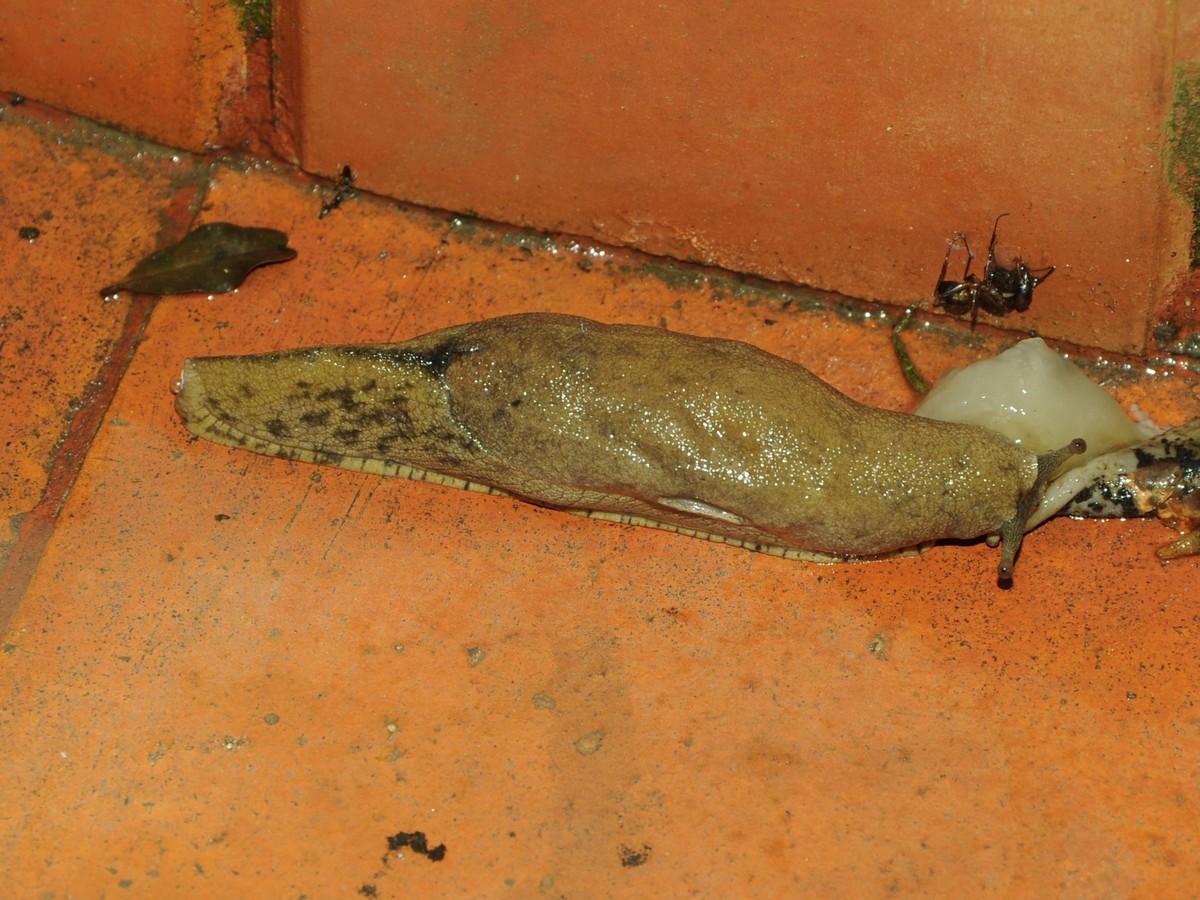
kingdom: Animalia
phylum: Mollusca
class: Gastropoda
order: Stylommatophora
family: Ariophantidae
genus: Mariaella
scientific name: Mariaella dussumieri
